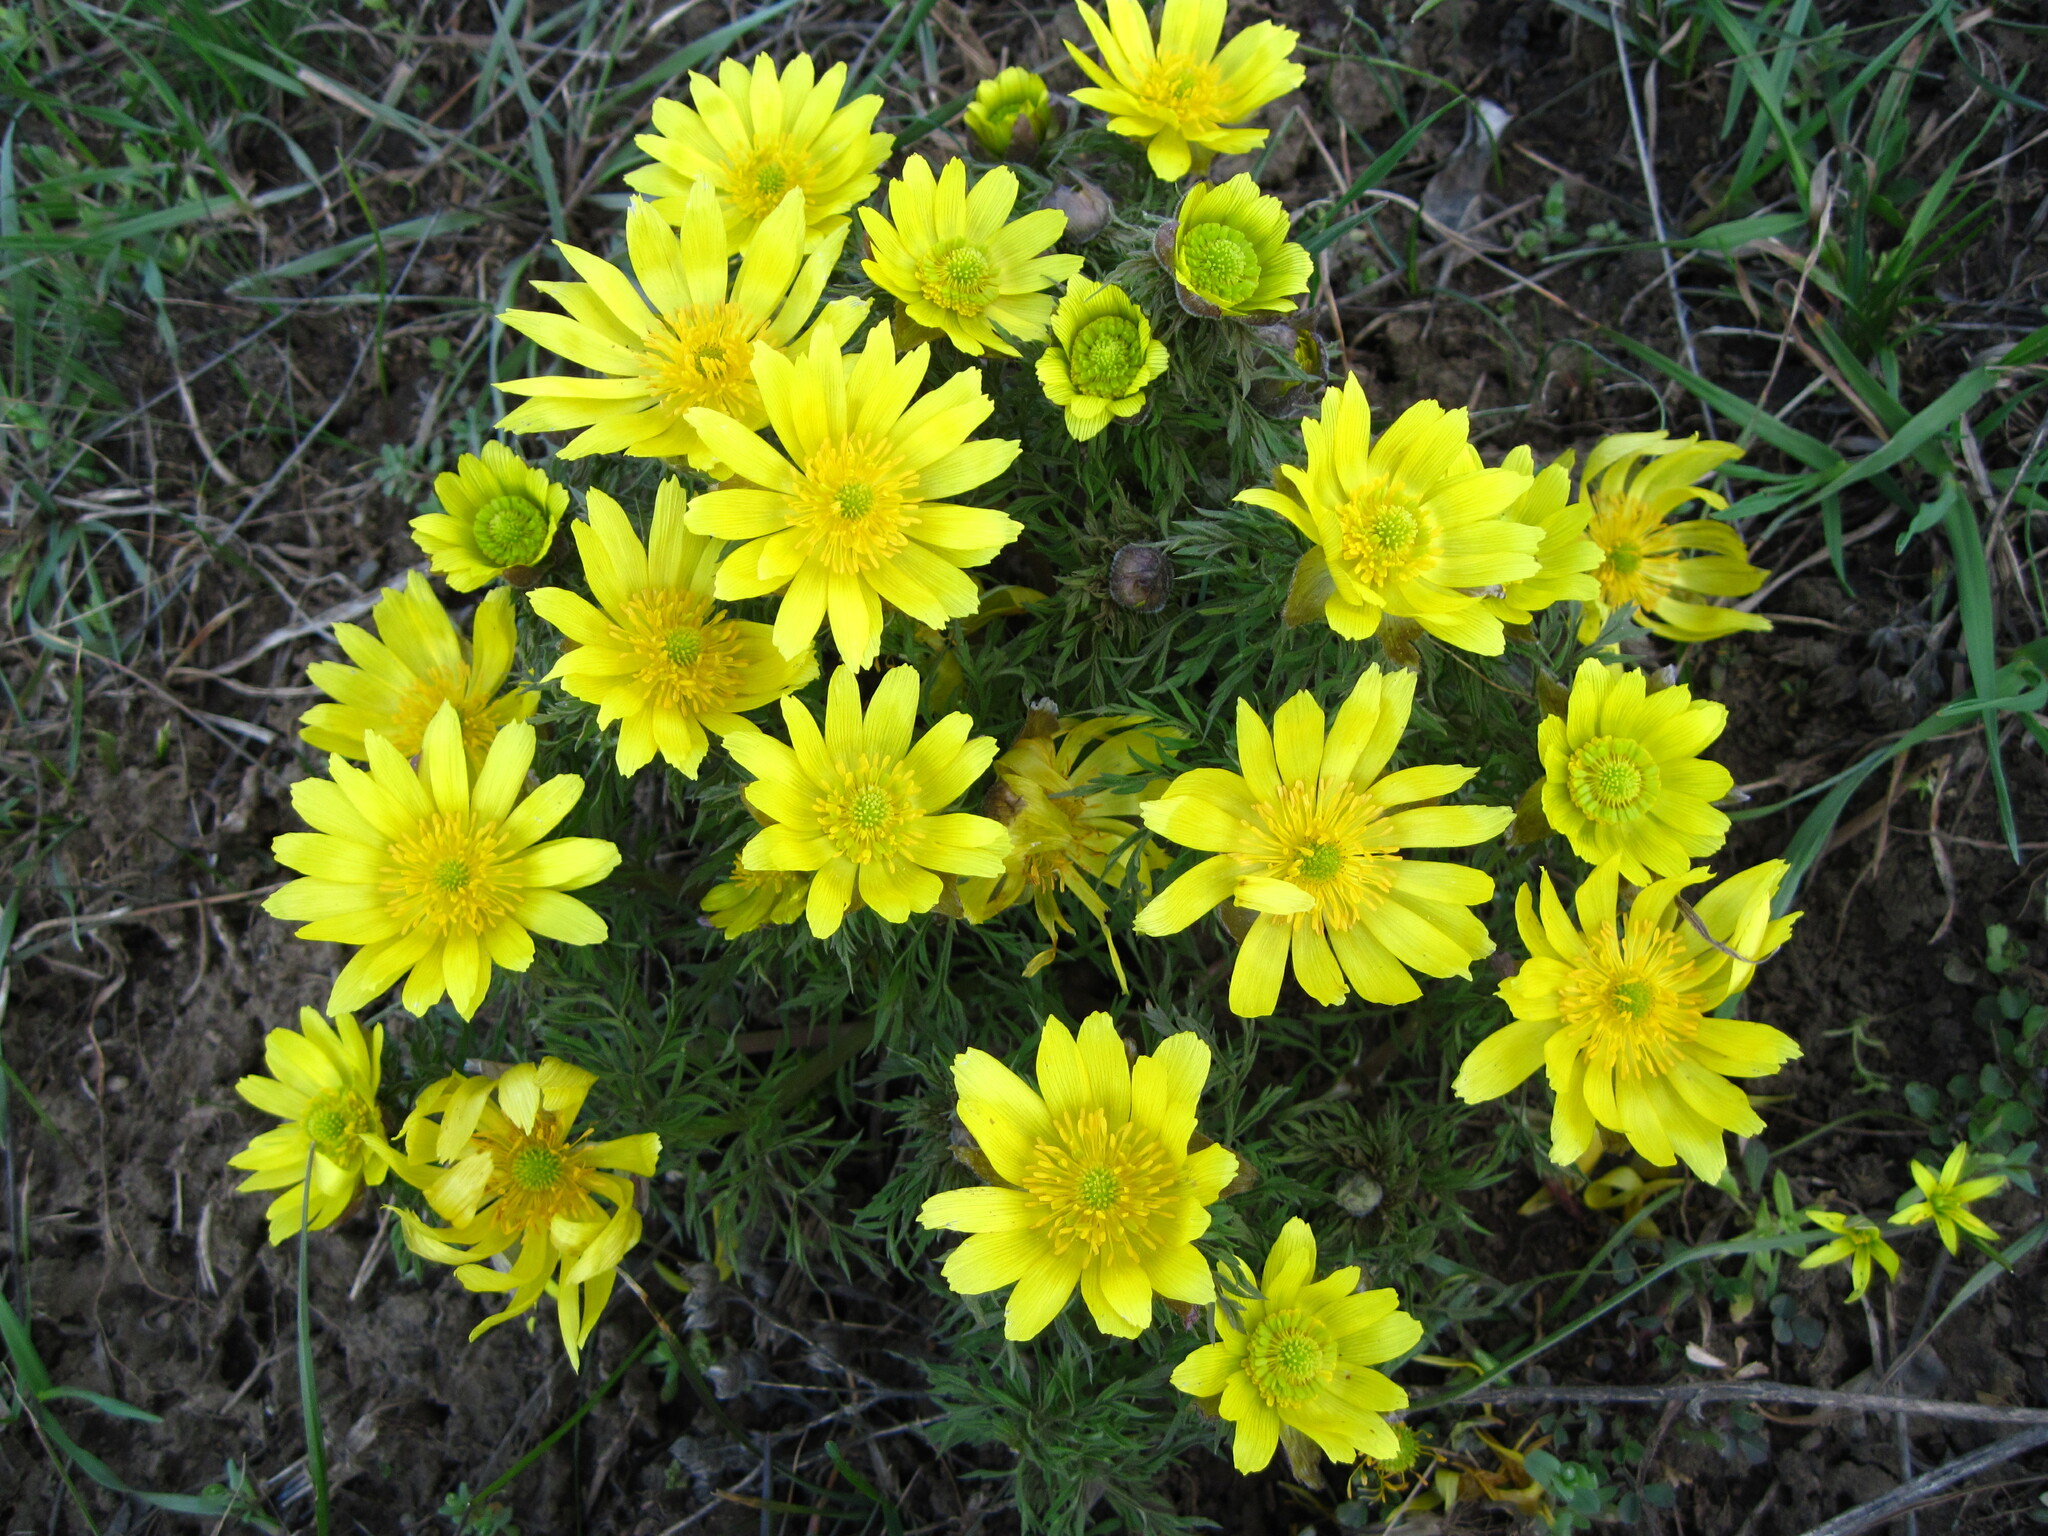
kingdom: Plantae
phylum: Tracheophyta
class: Magnoliopsida
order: Ranunculales
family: Ranunculaceae
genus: Adonis
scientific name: Adonis volgensis
